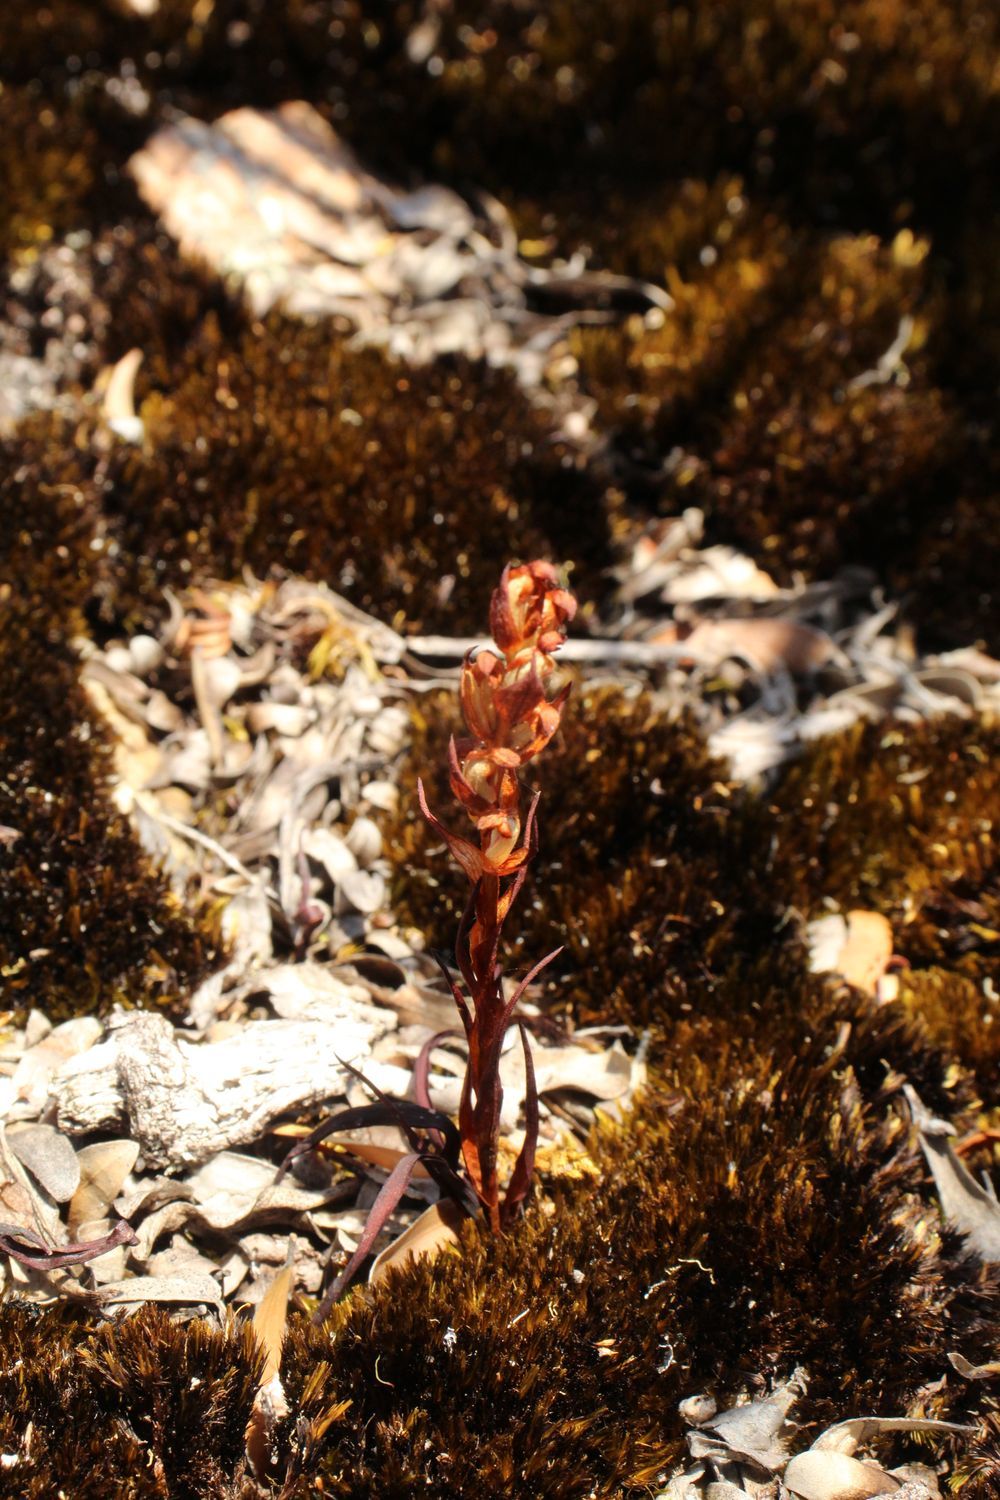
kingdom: Plantae
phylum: Tracheophyta
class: Liliopsida
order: Asparagales
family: Orchidaceae
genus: Disa
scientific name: Disa bracteata
